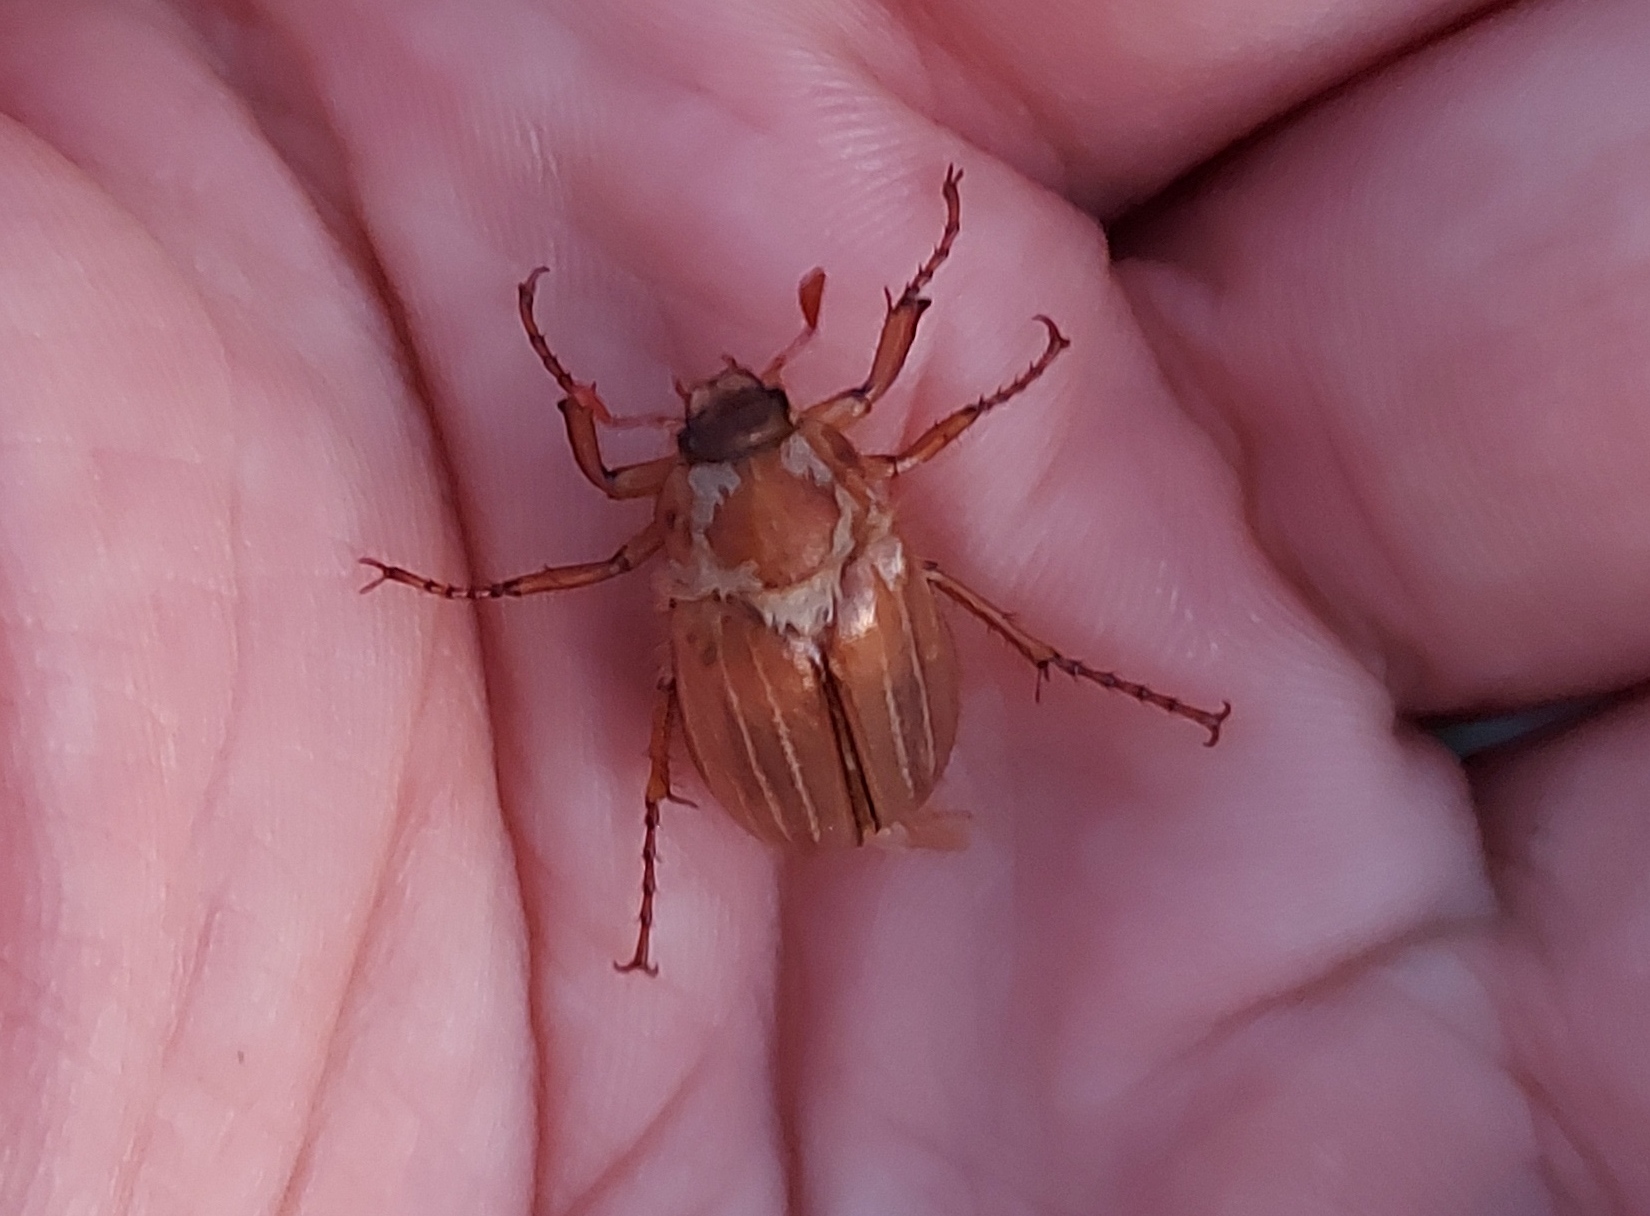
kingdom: Animalia
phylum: Arthropoda
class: Insecta
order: Coleoptera
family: Scarabaeidae
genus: Amphimallon
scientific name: Amphimallon solstitiale
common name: Summer chafer
